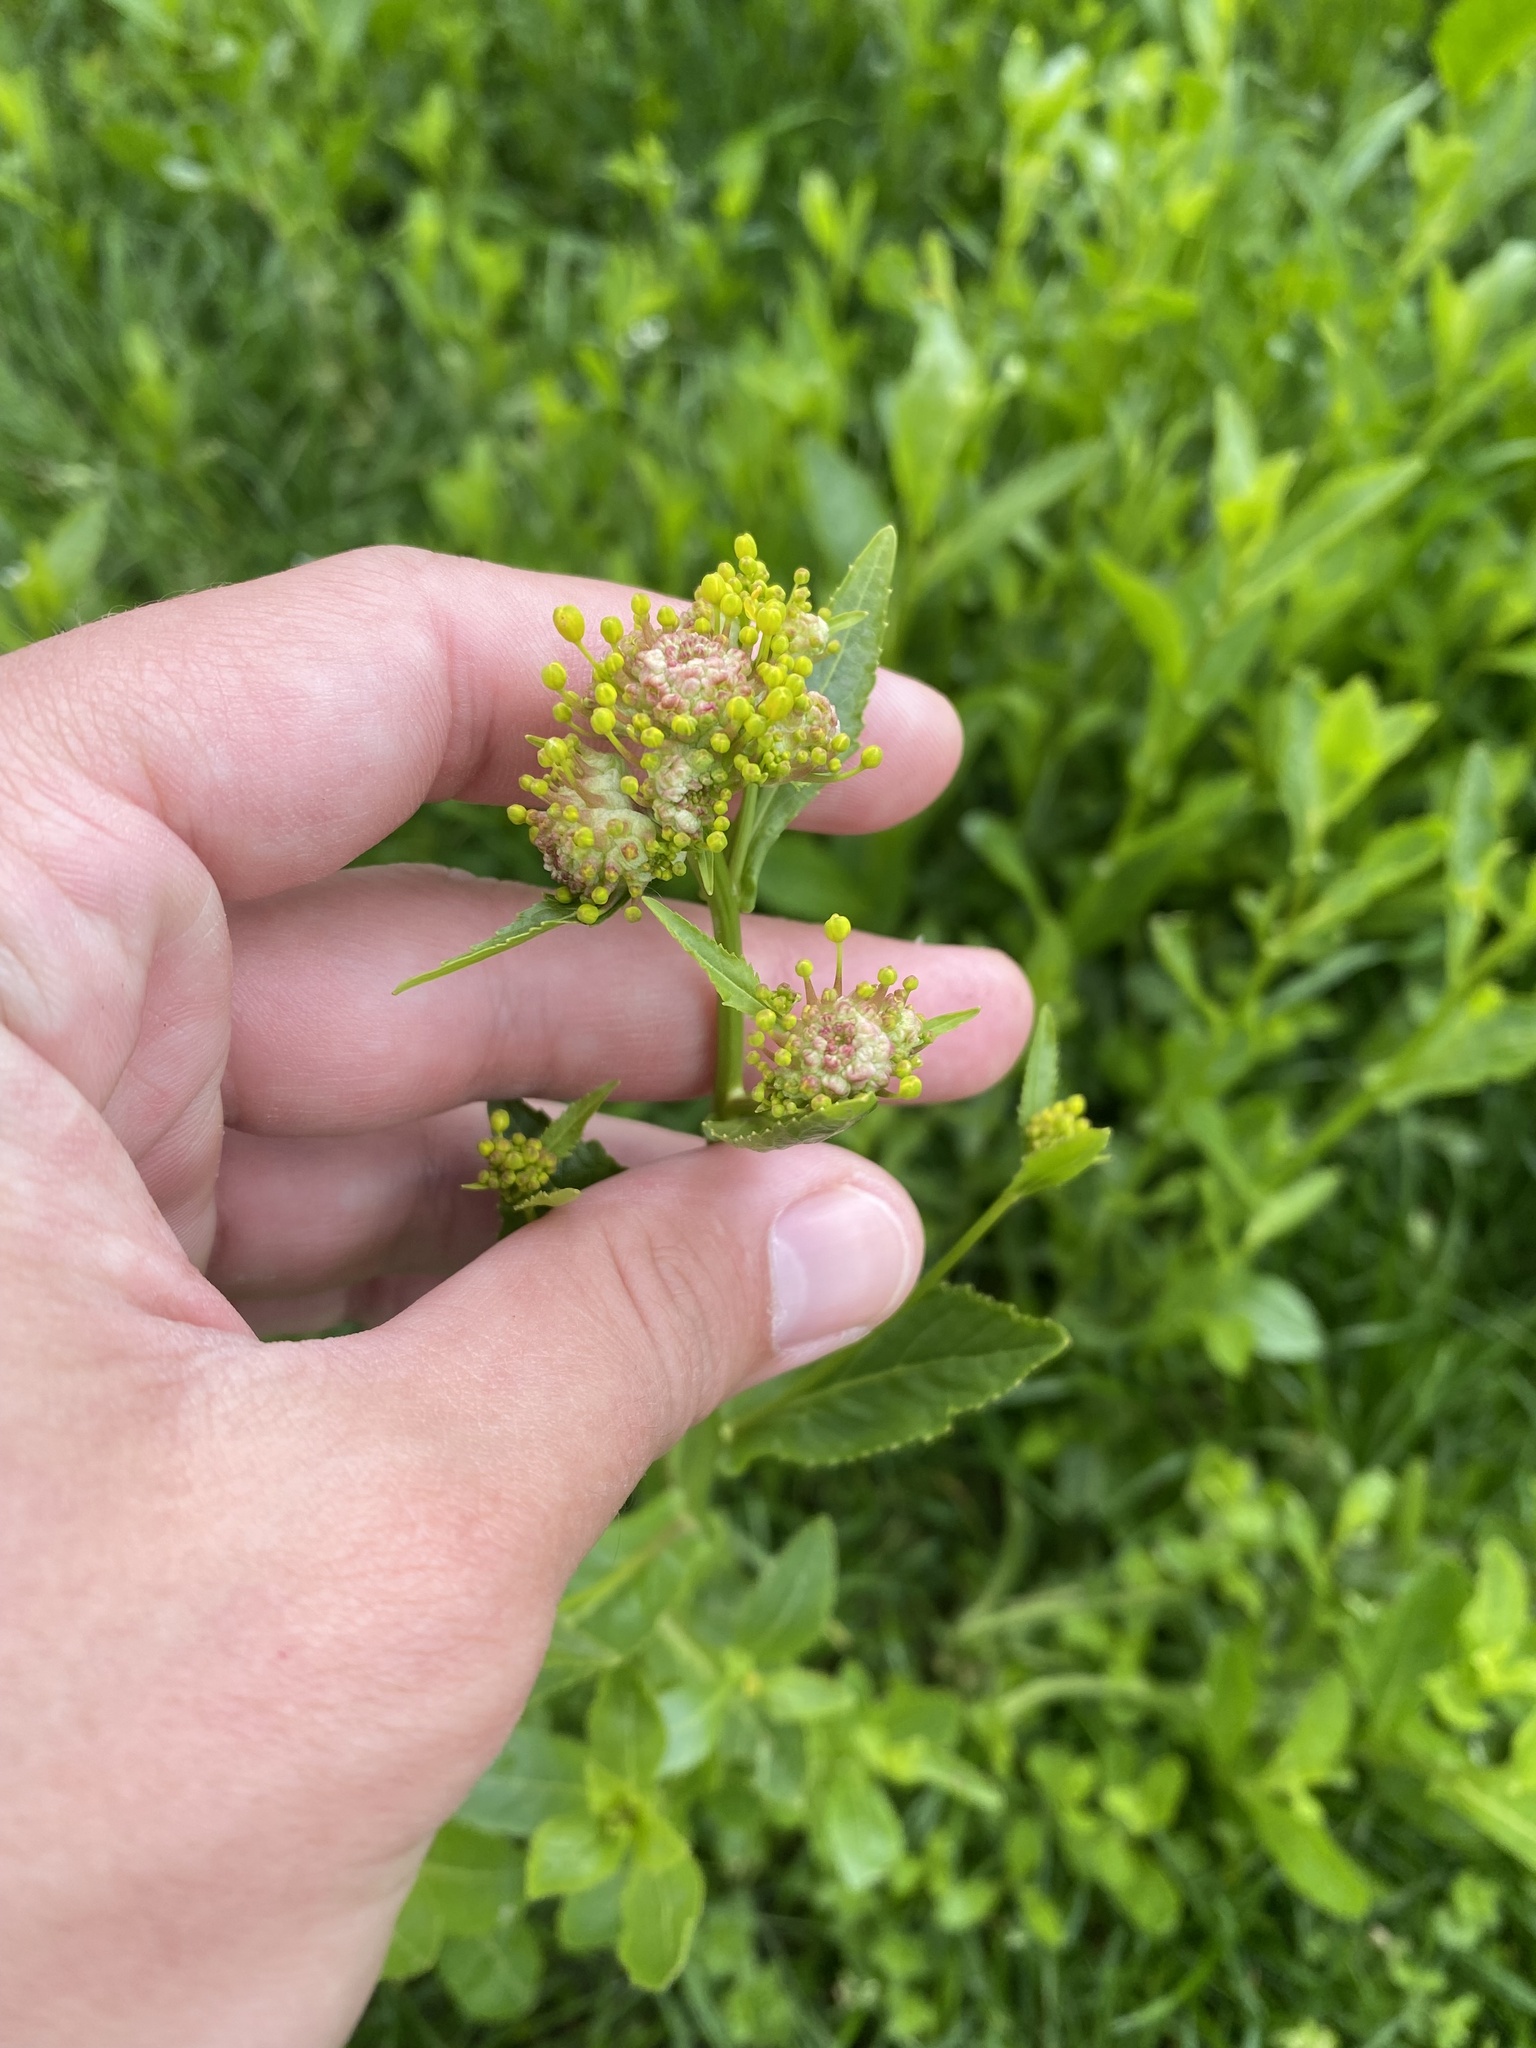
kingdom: Plantae
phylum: Tracheophyta
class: Magnoliopsida
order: Brassicales
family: Brassicaceae
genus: Rorippa
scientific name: Rorippa austriaca
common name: Austrian yellow-cress
